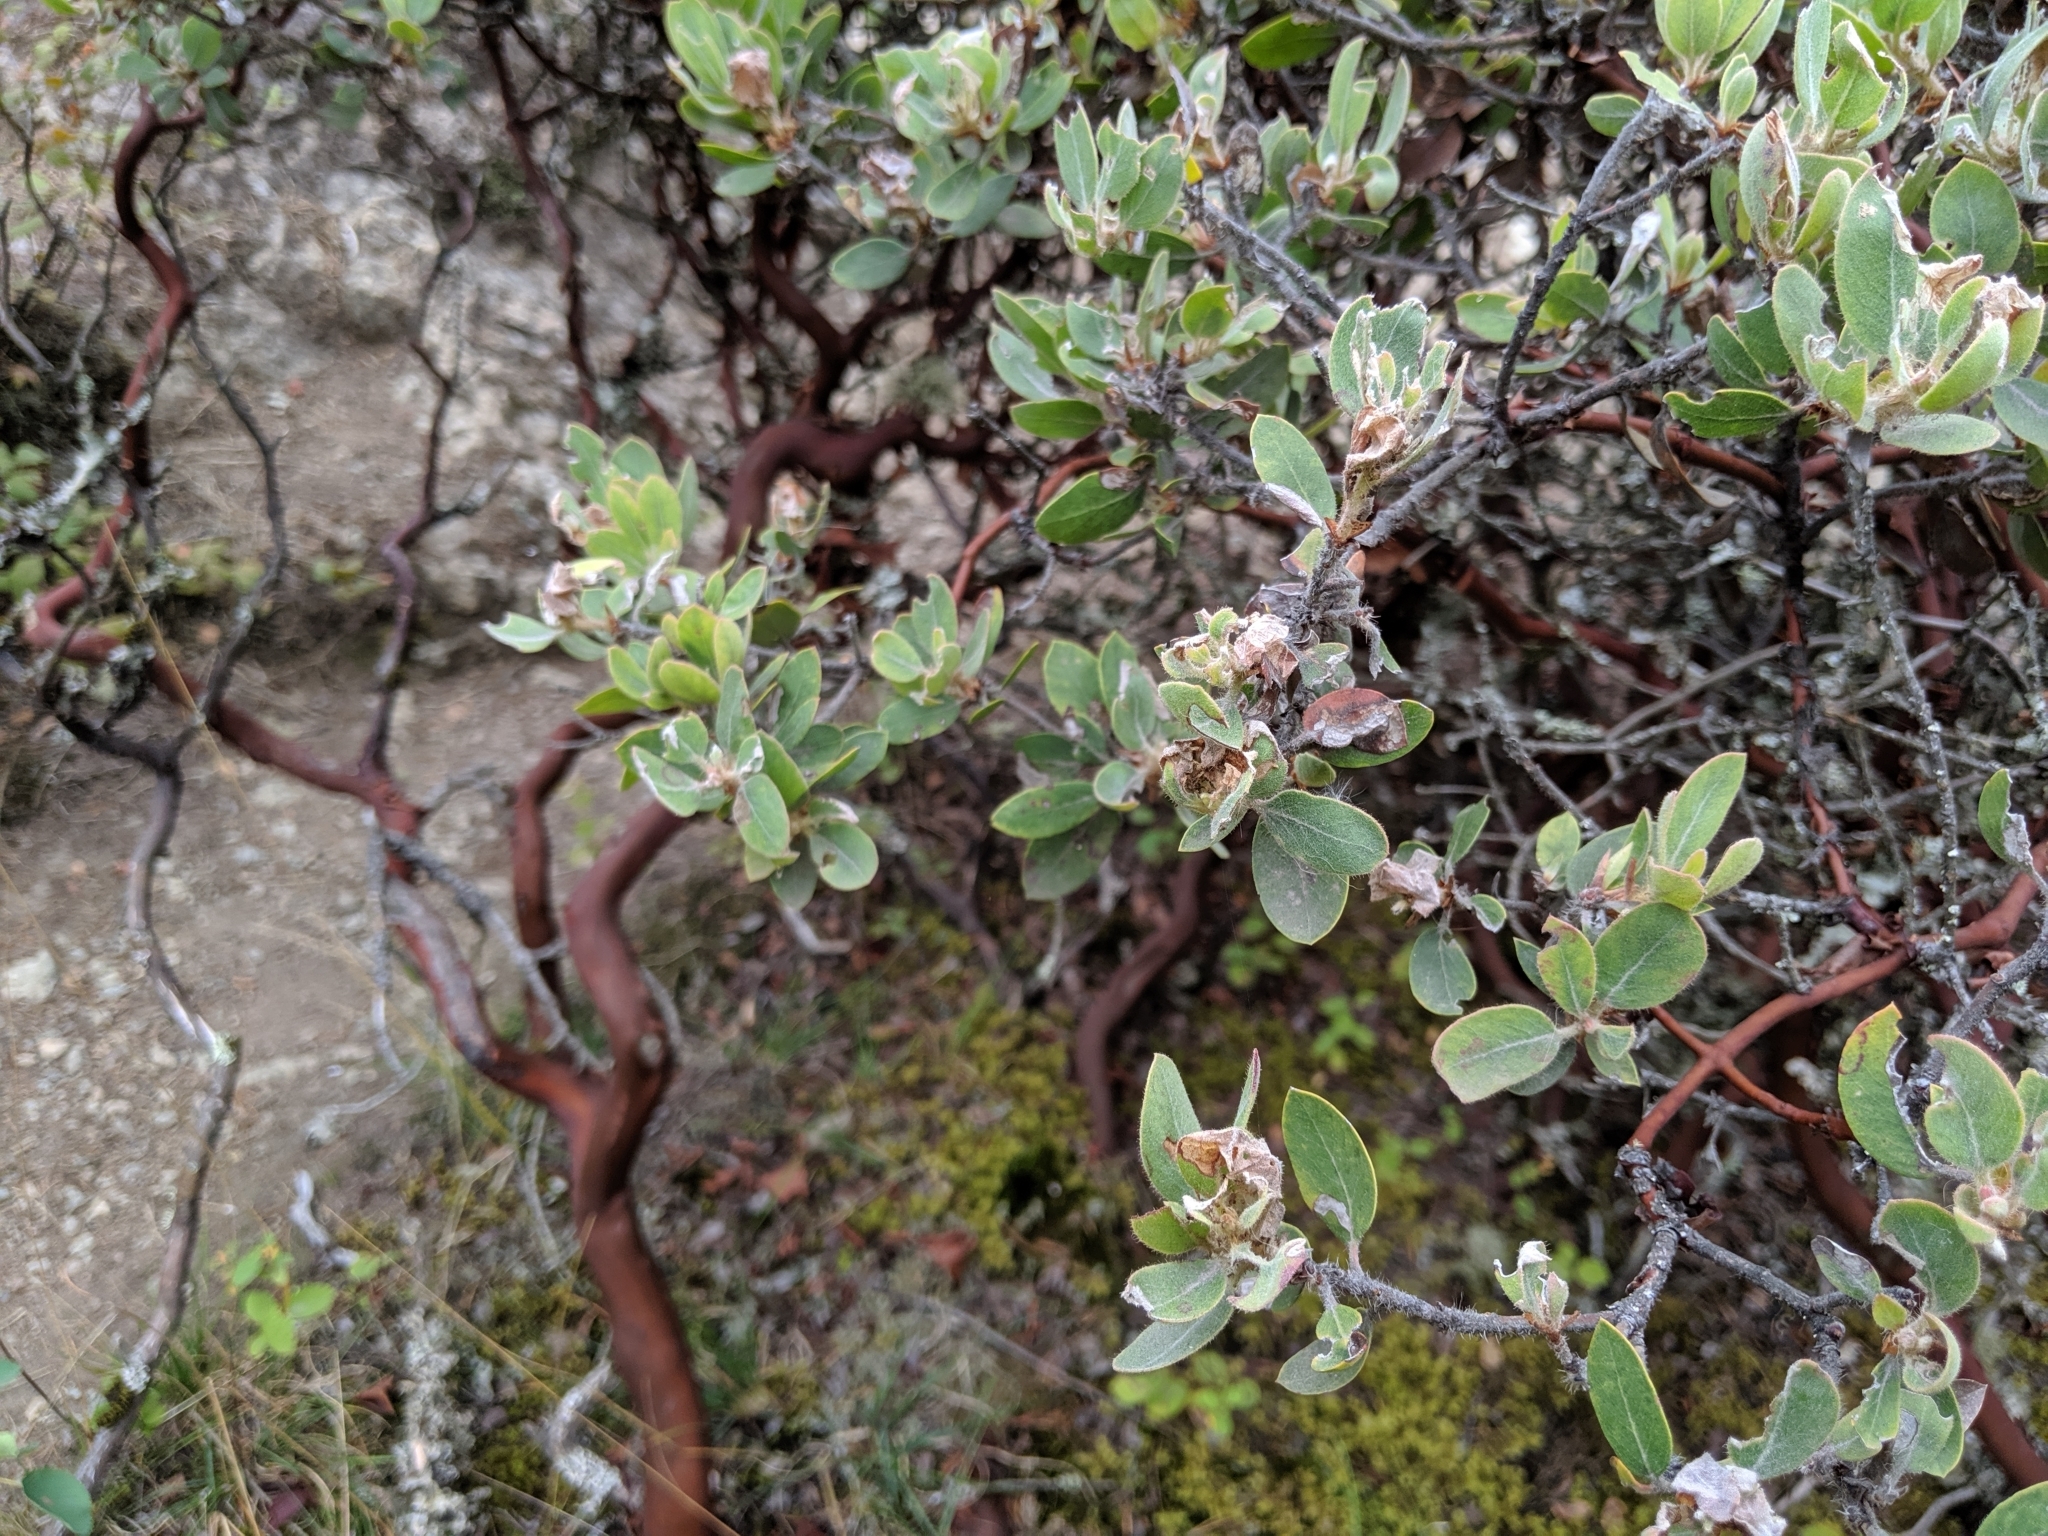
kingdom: Plantae
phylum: Tracheophyta
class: Magnoliopsida
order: Ericales
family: Ericaceae
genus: Arctostaphylos
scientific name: Arctostaphylos columbiana
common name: Bristly bearberry
